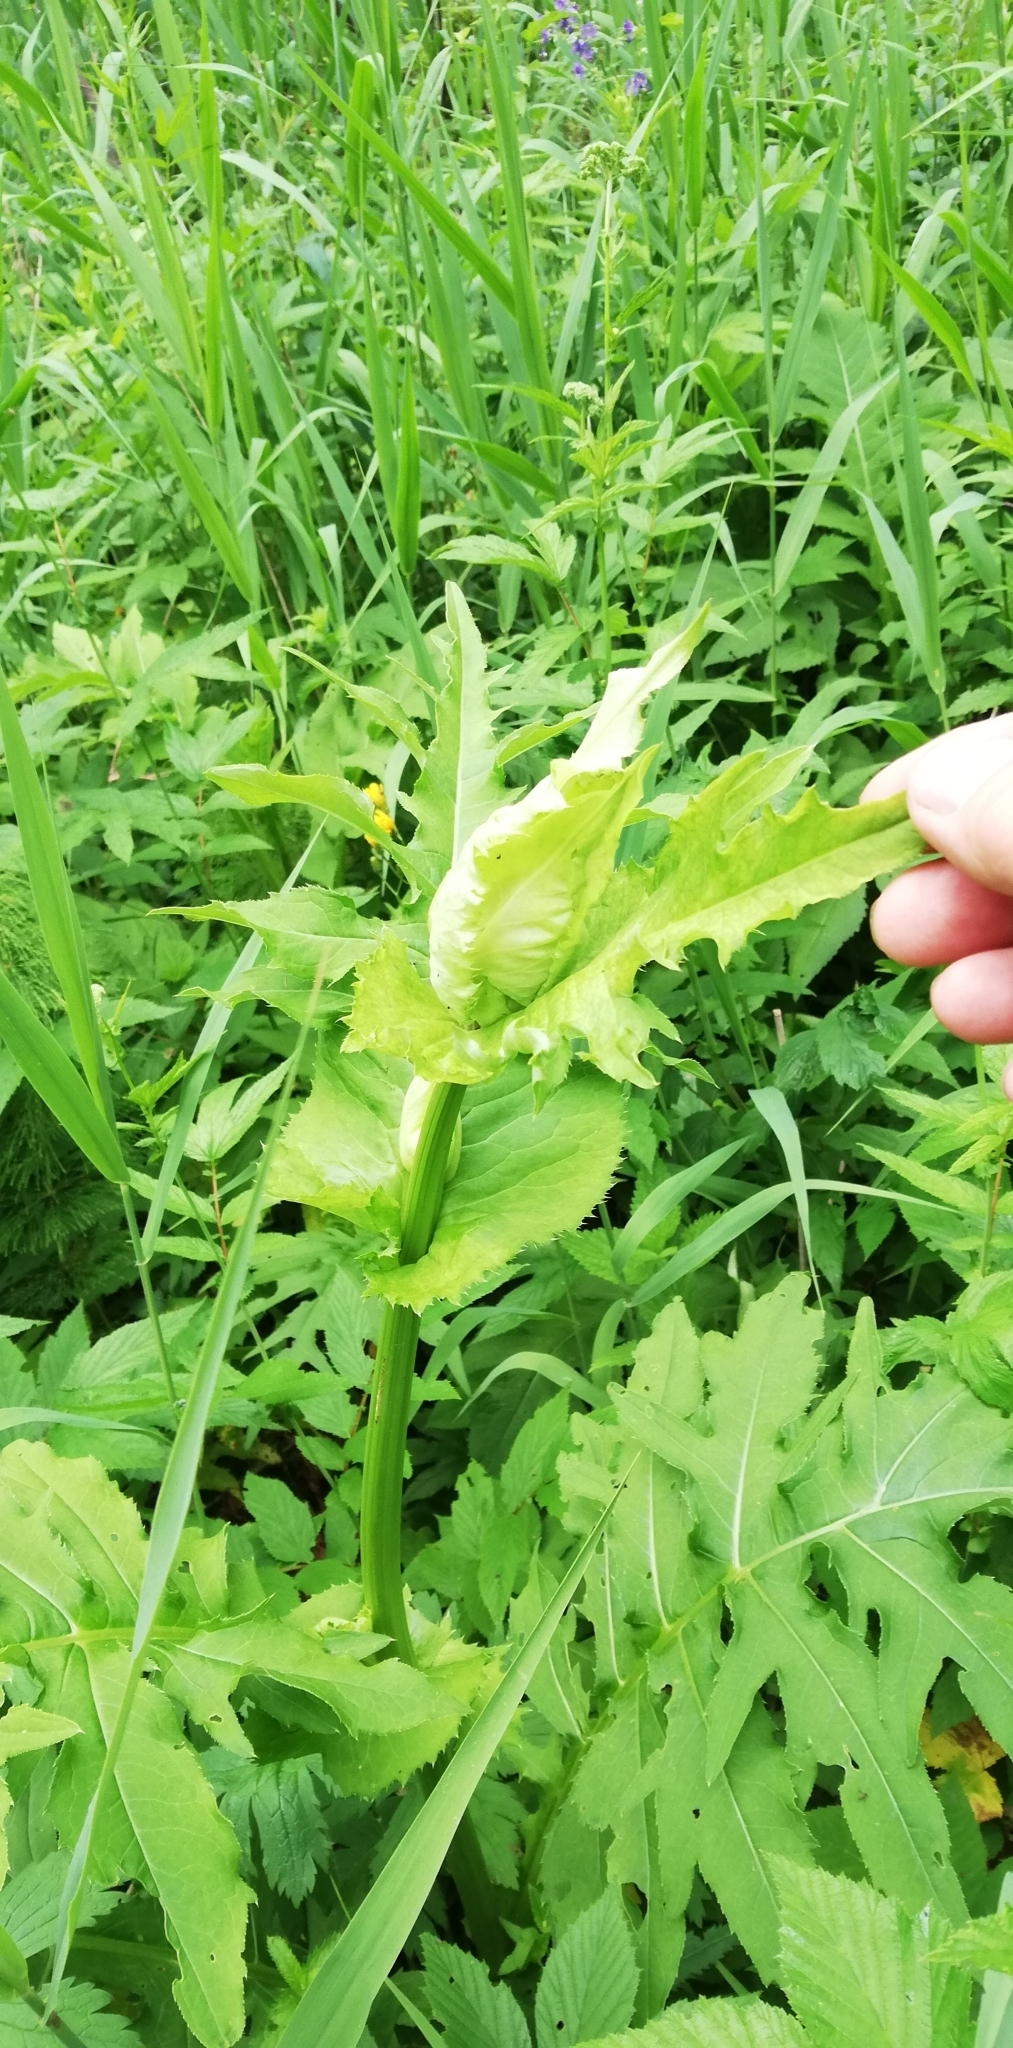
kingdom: Plantae
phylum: Tracheophyta
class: Magnoliopsida
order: Asterales
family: Asteraceae
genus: Cirsium
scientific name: Cirsium oleraceum
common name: Cabbage thistle
